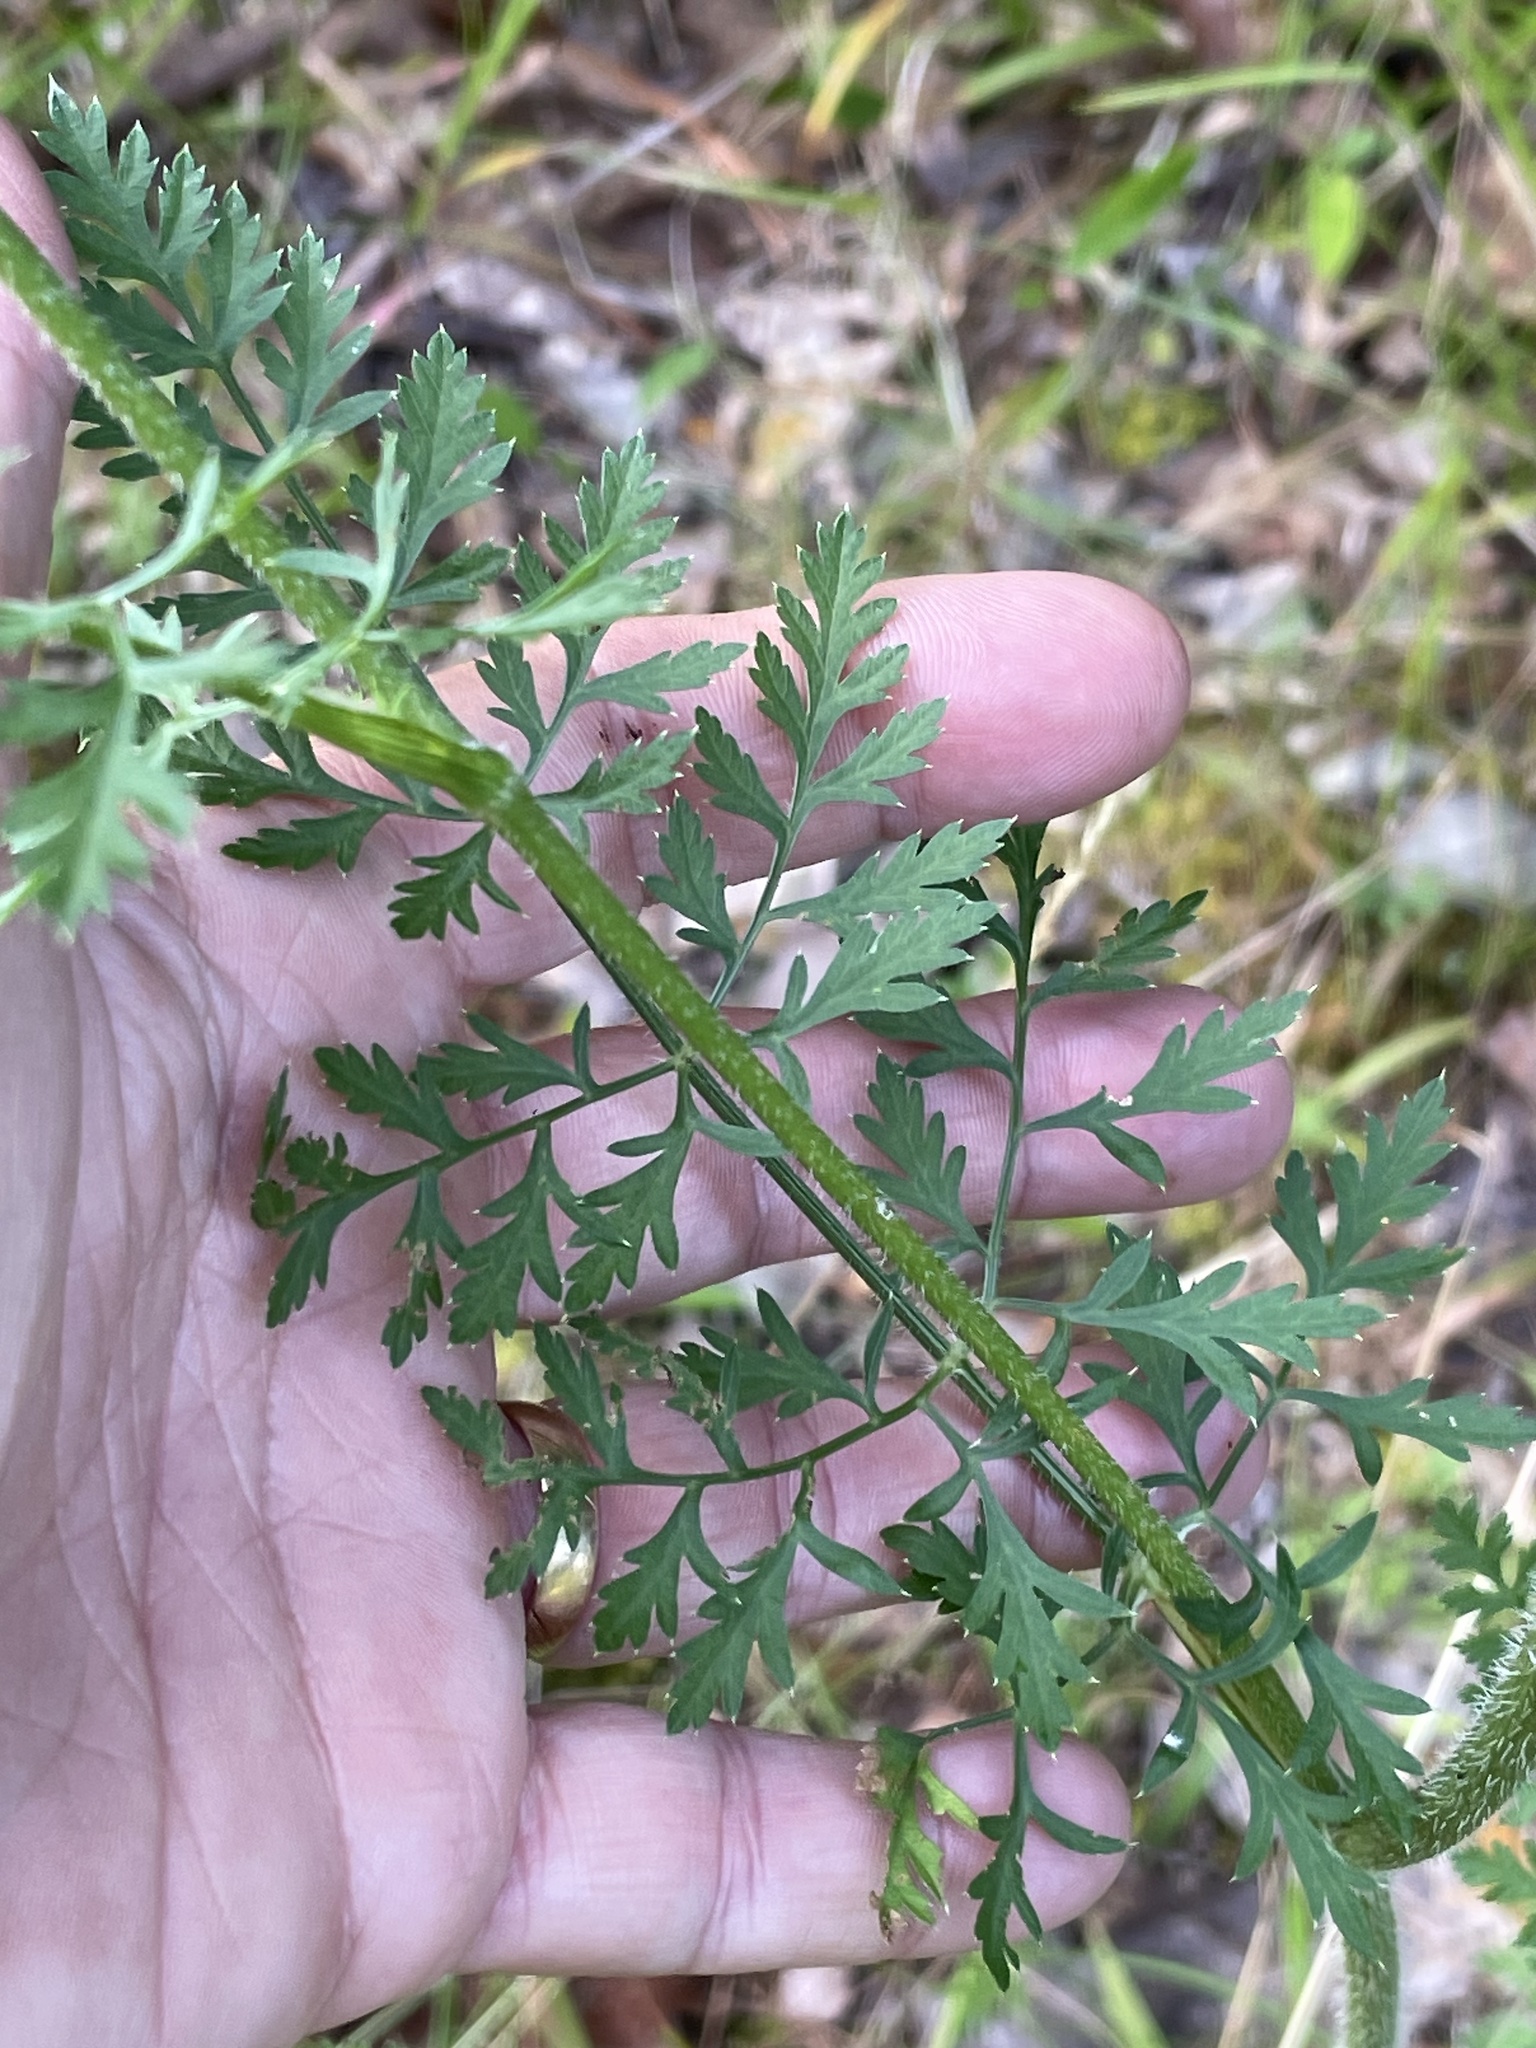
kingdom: Plantae
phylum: Tracheophyta
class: Magnoliopsida
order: Apiales
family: Apiaceae
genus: Daucus
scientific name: Daucus carota
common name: Wild carrot
